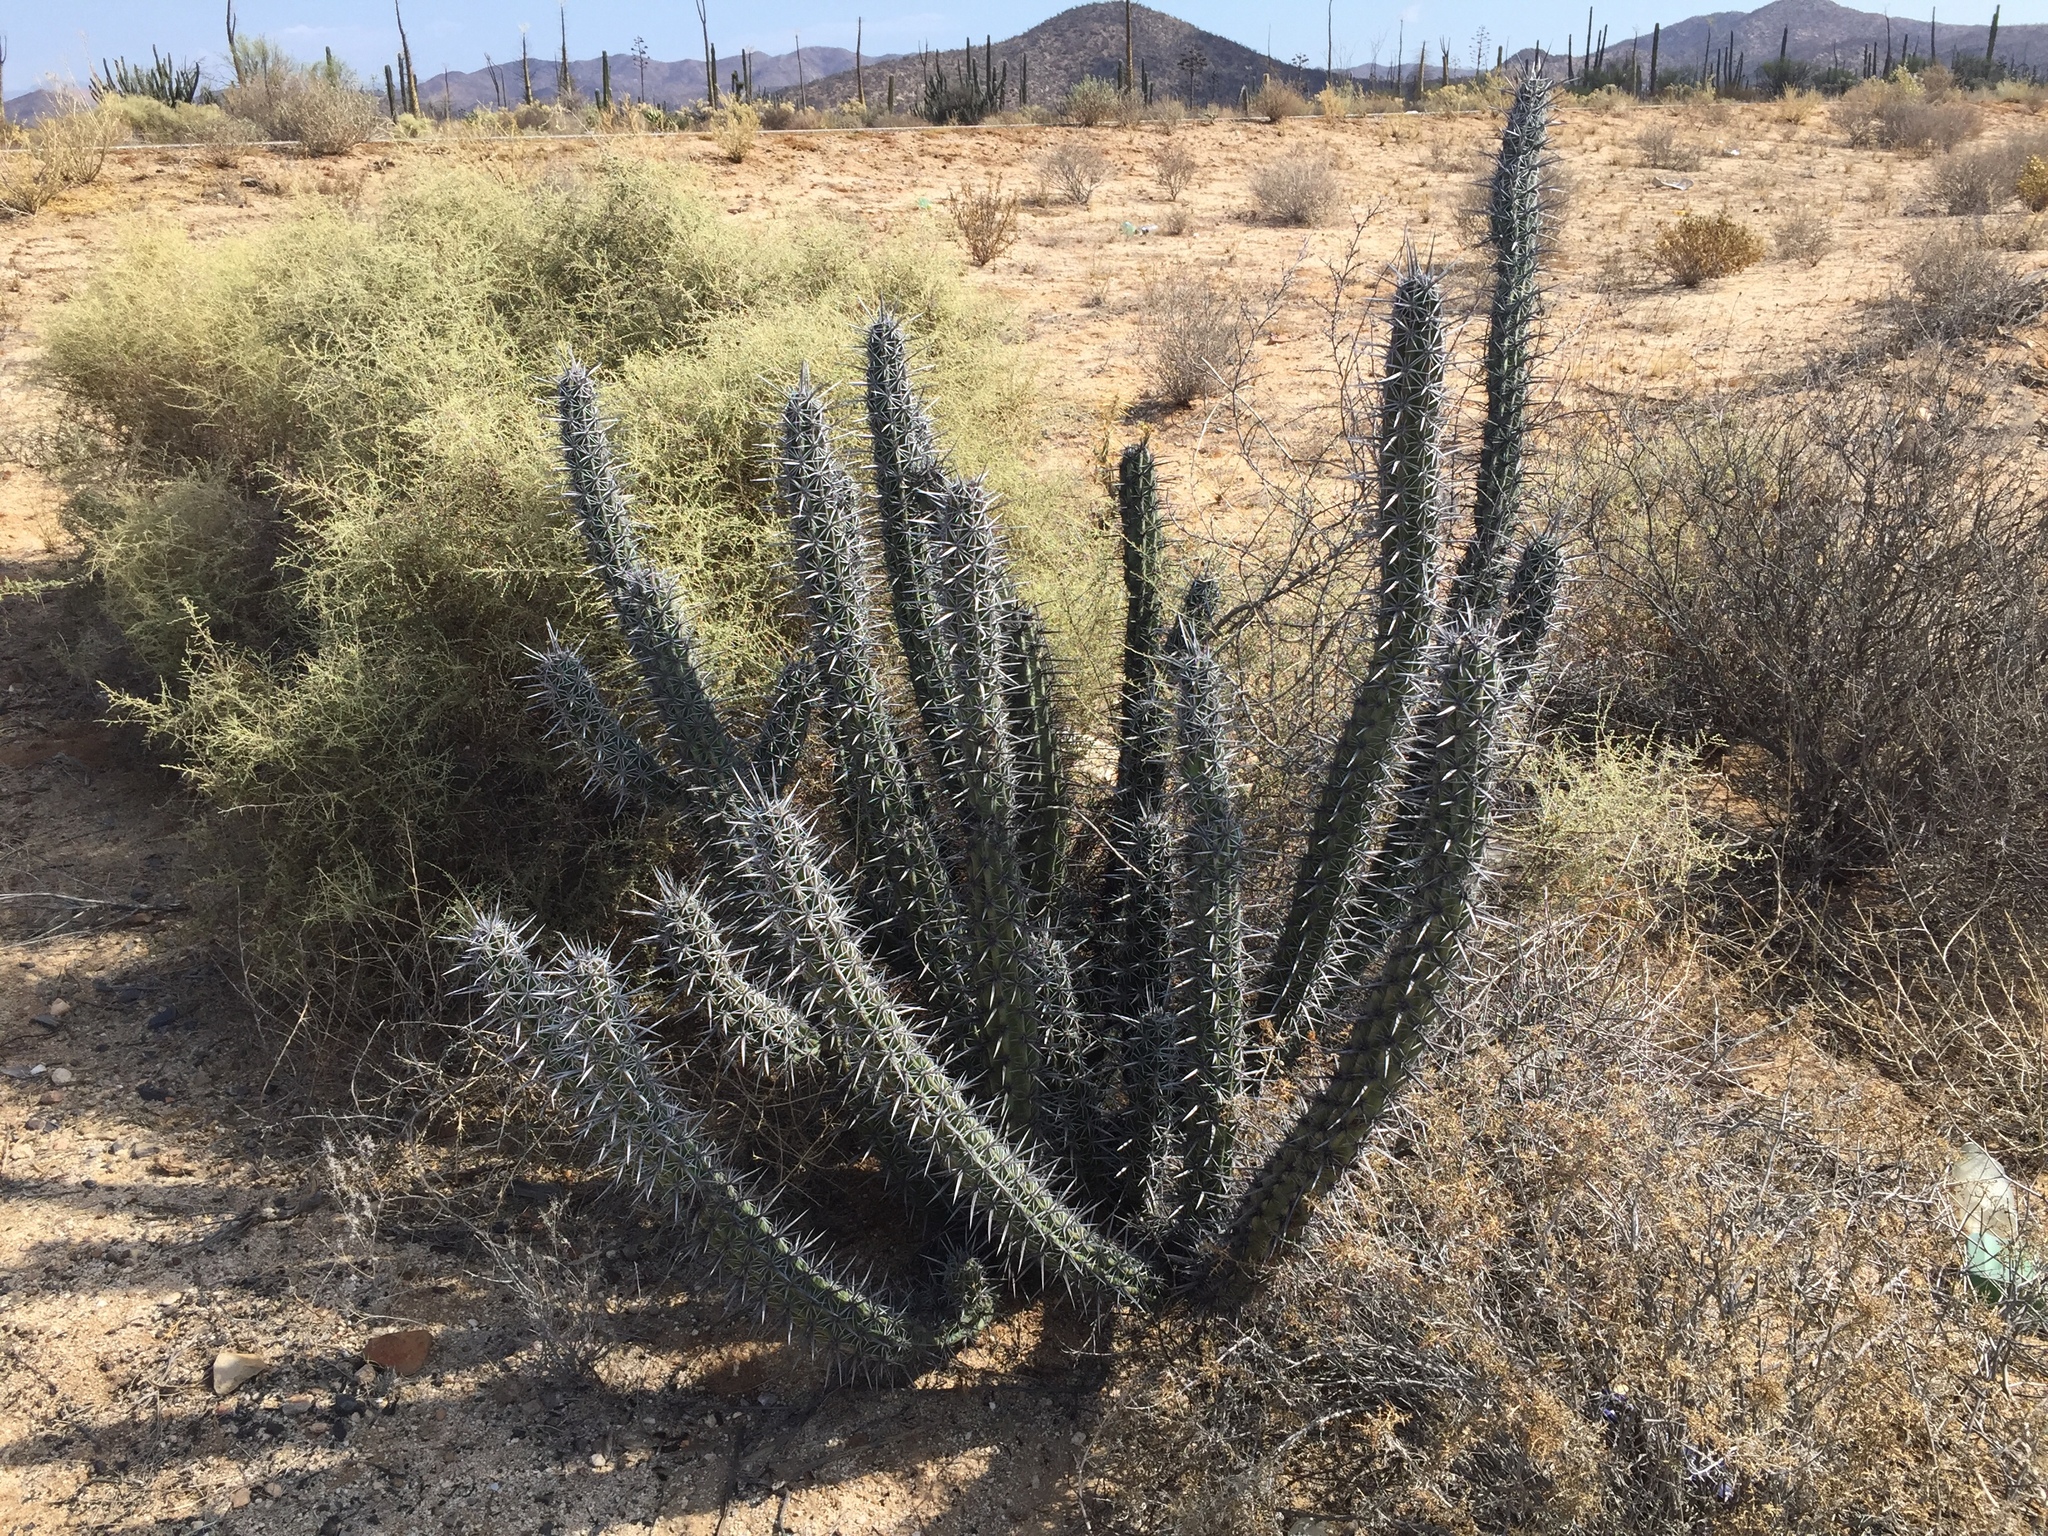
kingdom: Plantae
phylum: Tracheophyta
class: Magnoliopsida
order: Caryophyllales
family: Cactaceae
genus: Stenocereus
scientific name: Stenocereus gummosus
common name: Dagger cactus
